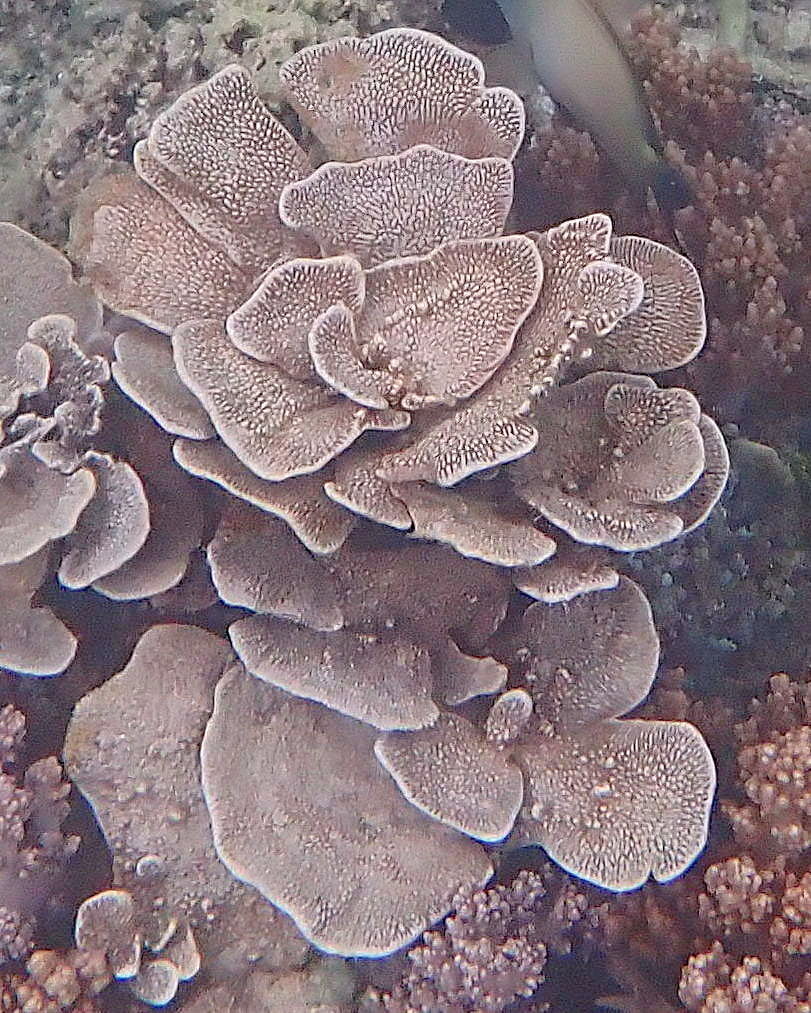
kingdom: Animalia
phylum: Porifera
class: Demospongiae
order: Dictyoceratida
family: Thorectidae
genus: Phyllospongia
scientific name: Phyllospongia foliascens
